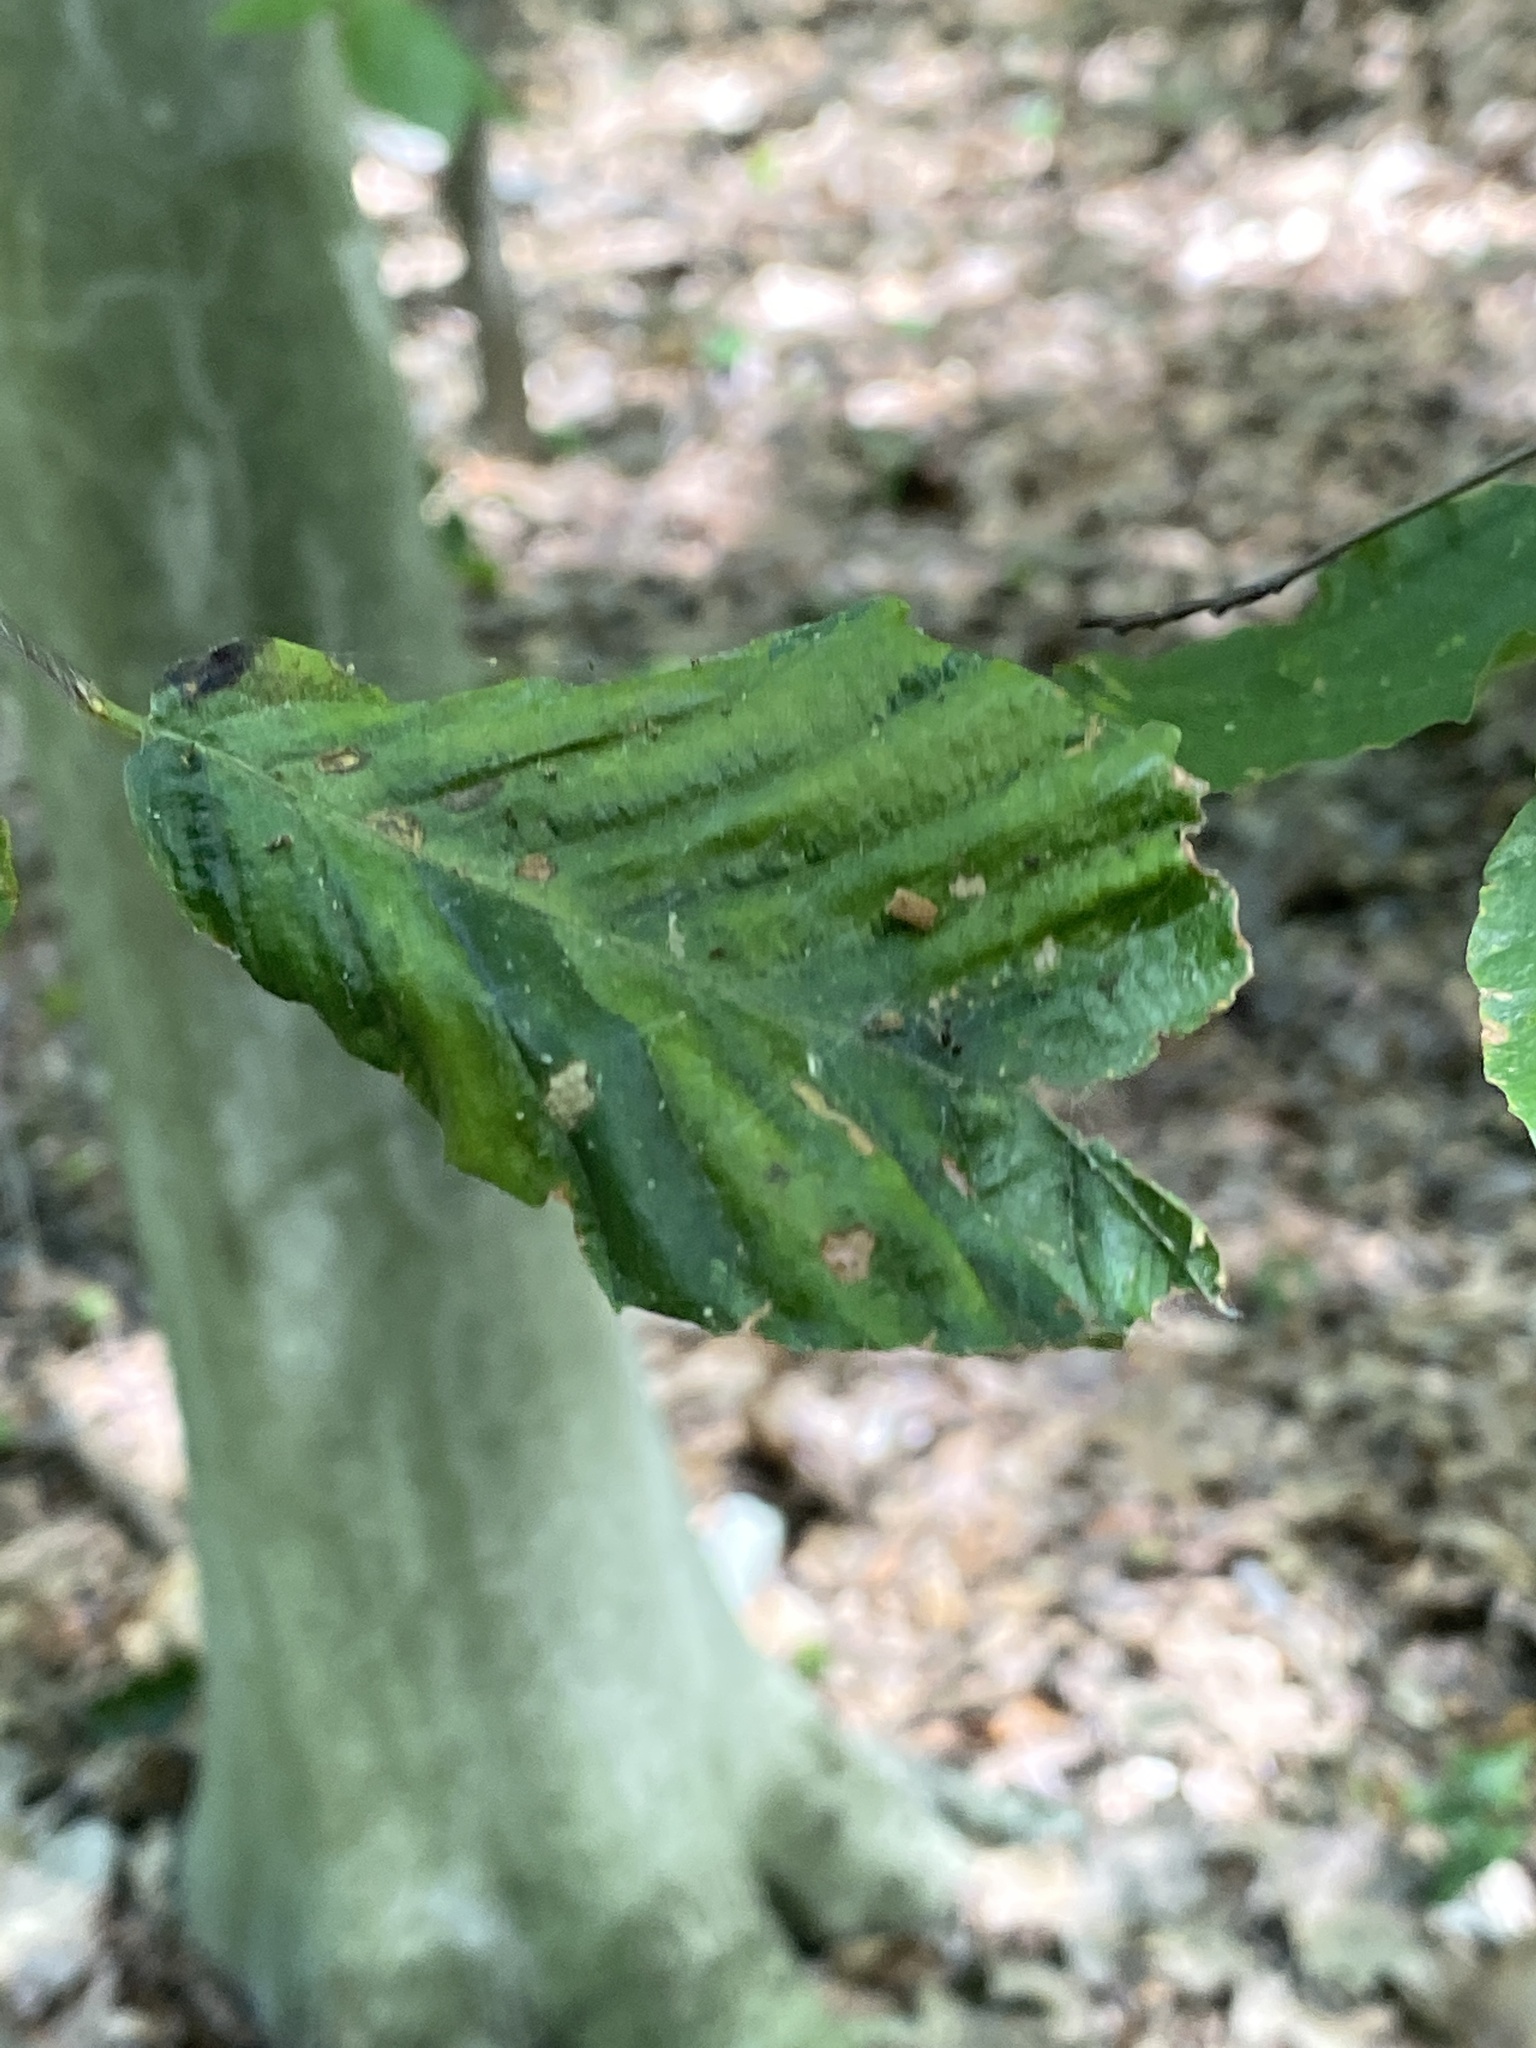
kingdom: Animalia
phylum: Nematoda
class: Chromadorea
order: Rhabditida
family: Anguinidae
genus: Litylenchus
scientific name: Litylenchus crenatae
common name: Beech leaf disease
